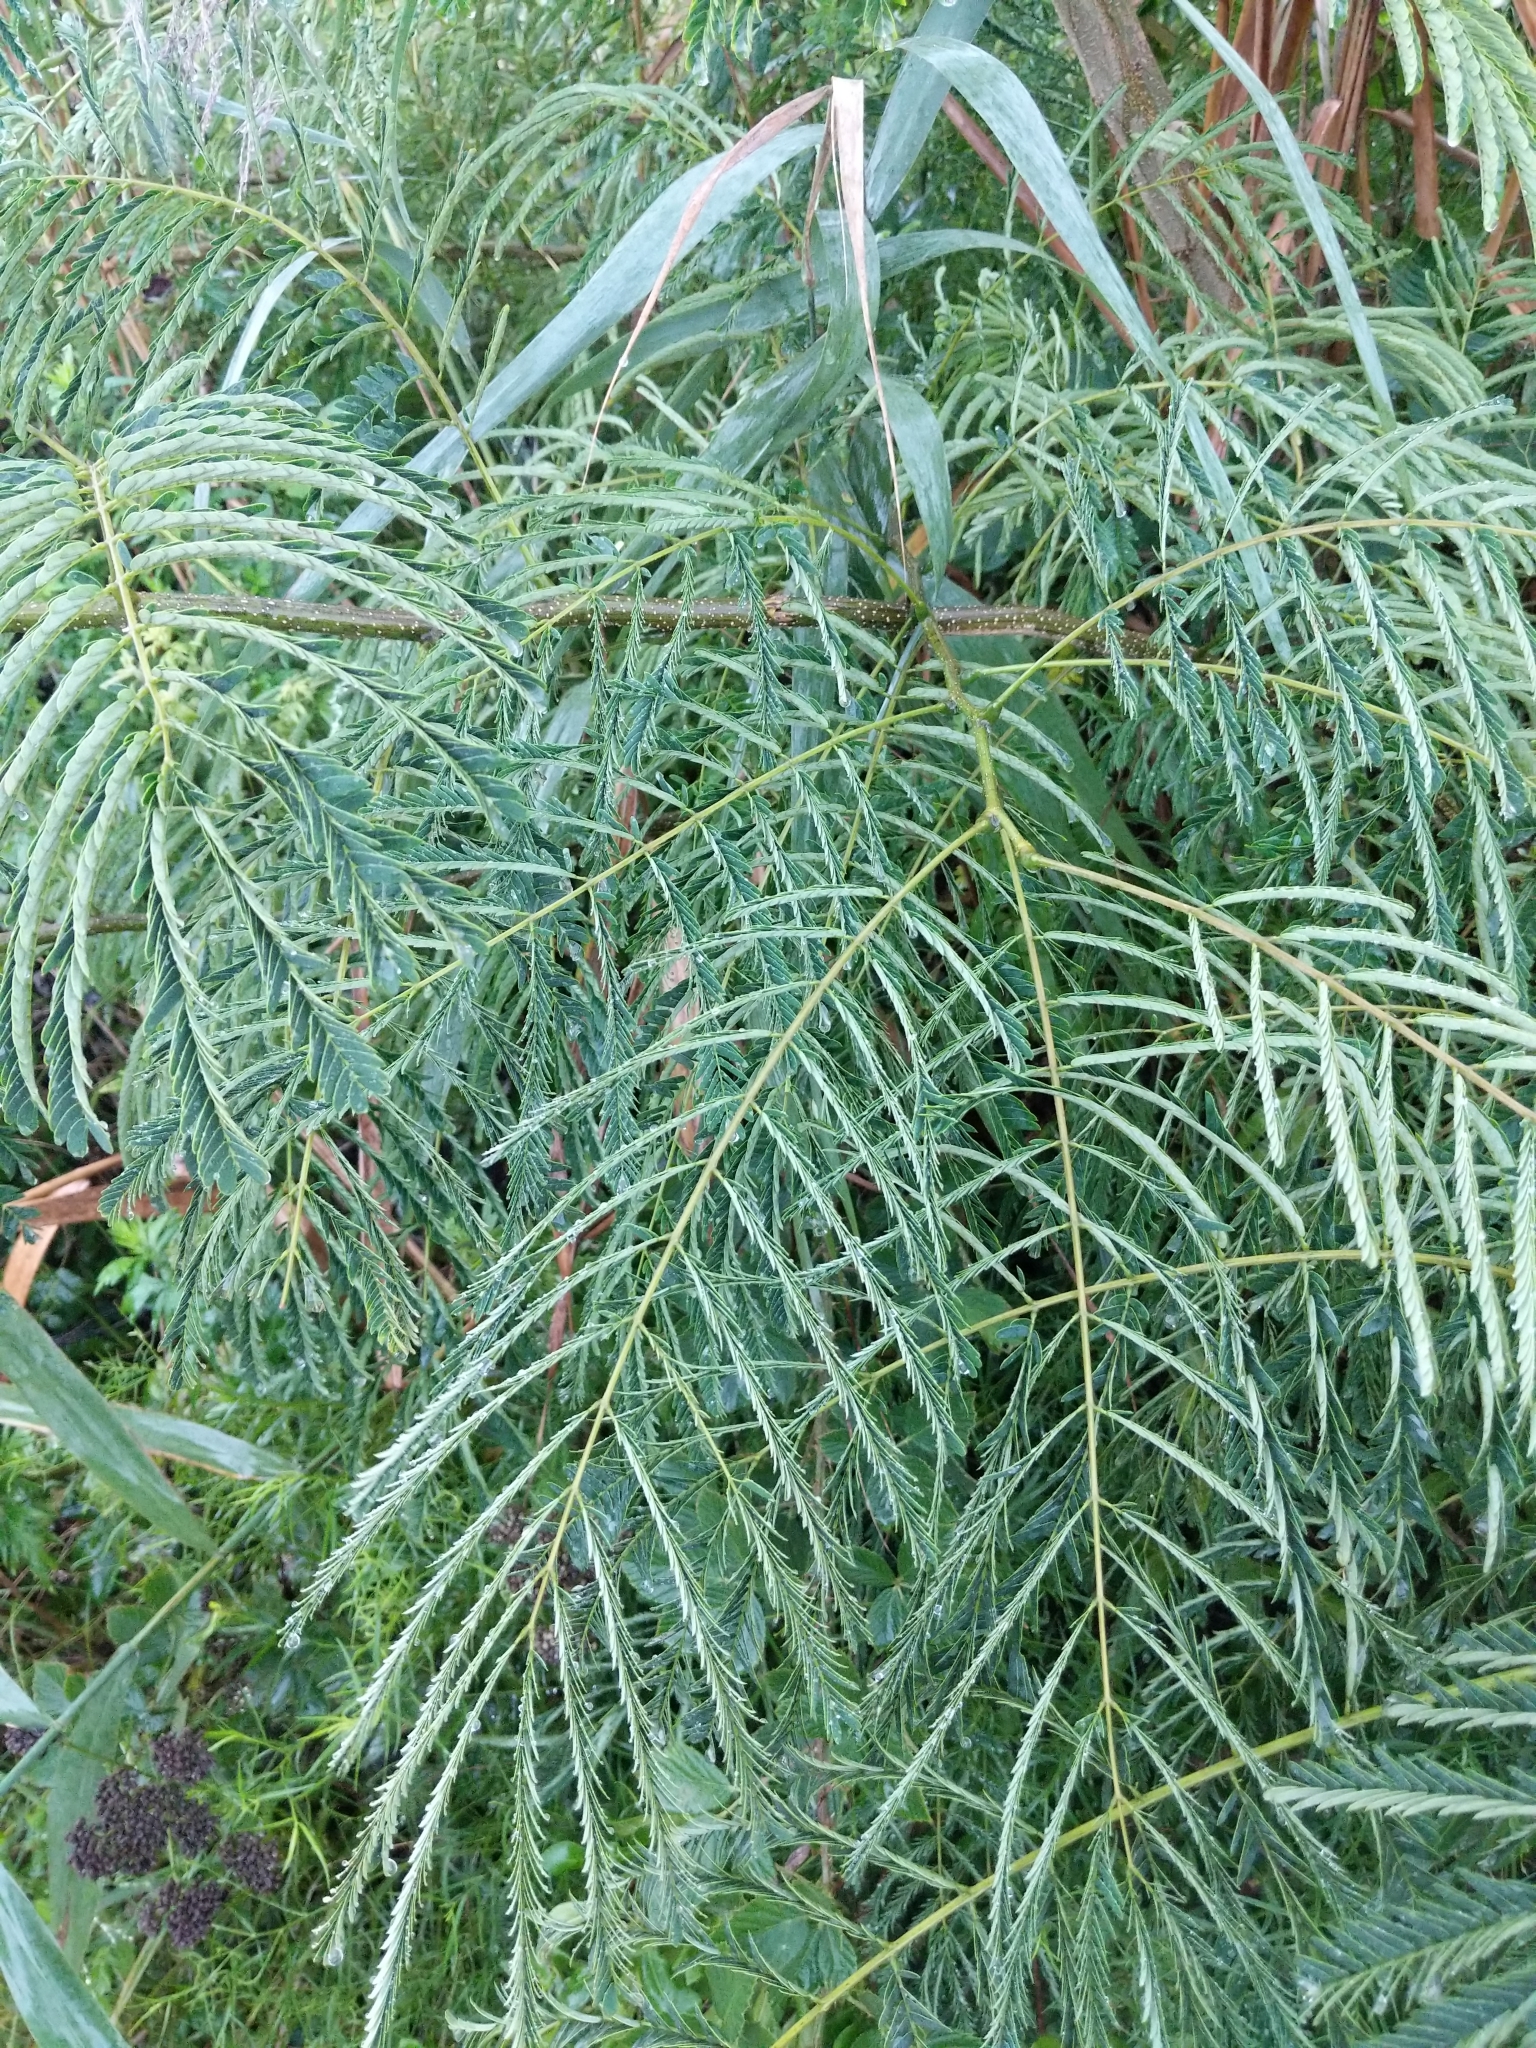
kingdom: Plantae
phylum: Tracheophyta
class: Magnoliopsida
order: Fabales
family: Fabaceae
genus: Albizia
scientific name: Albizia julibrissin
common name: Silktree
